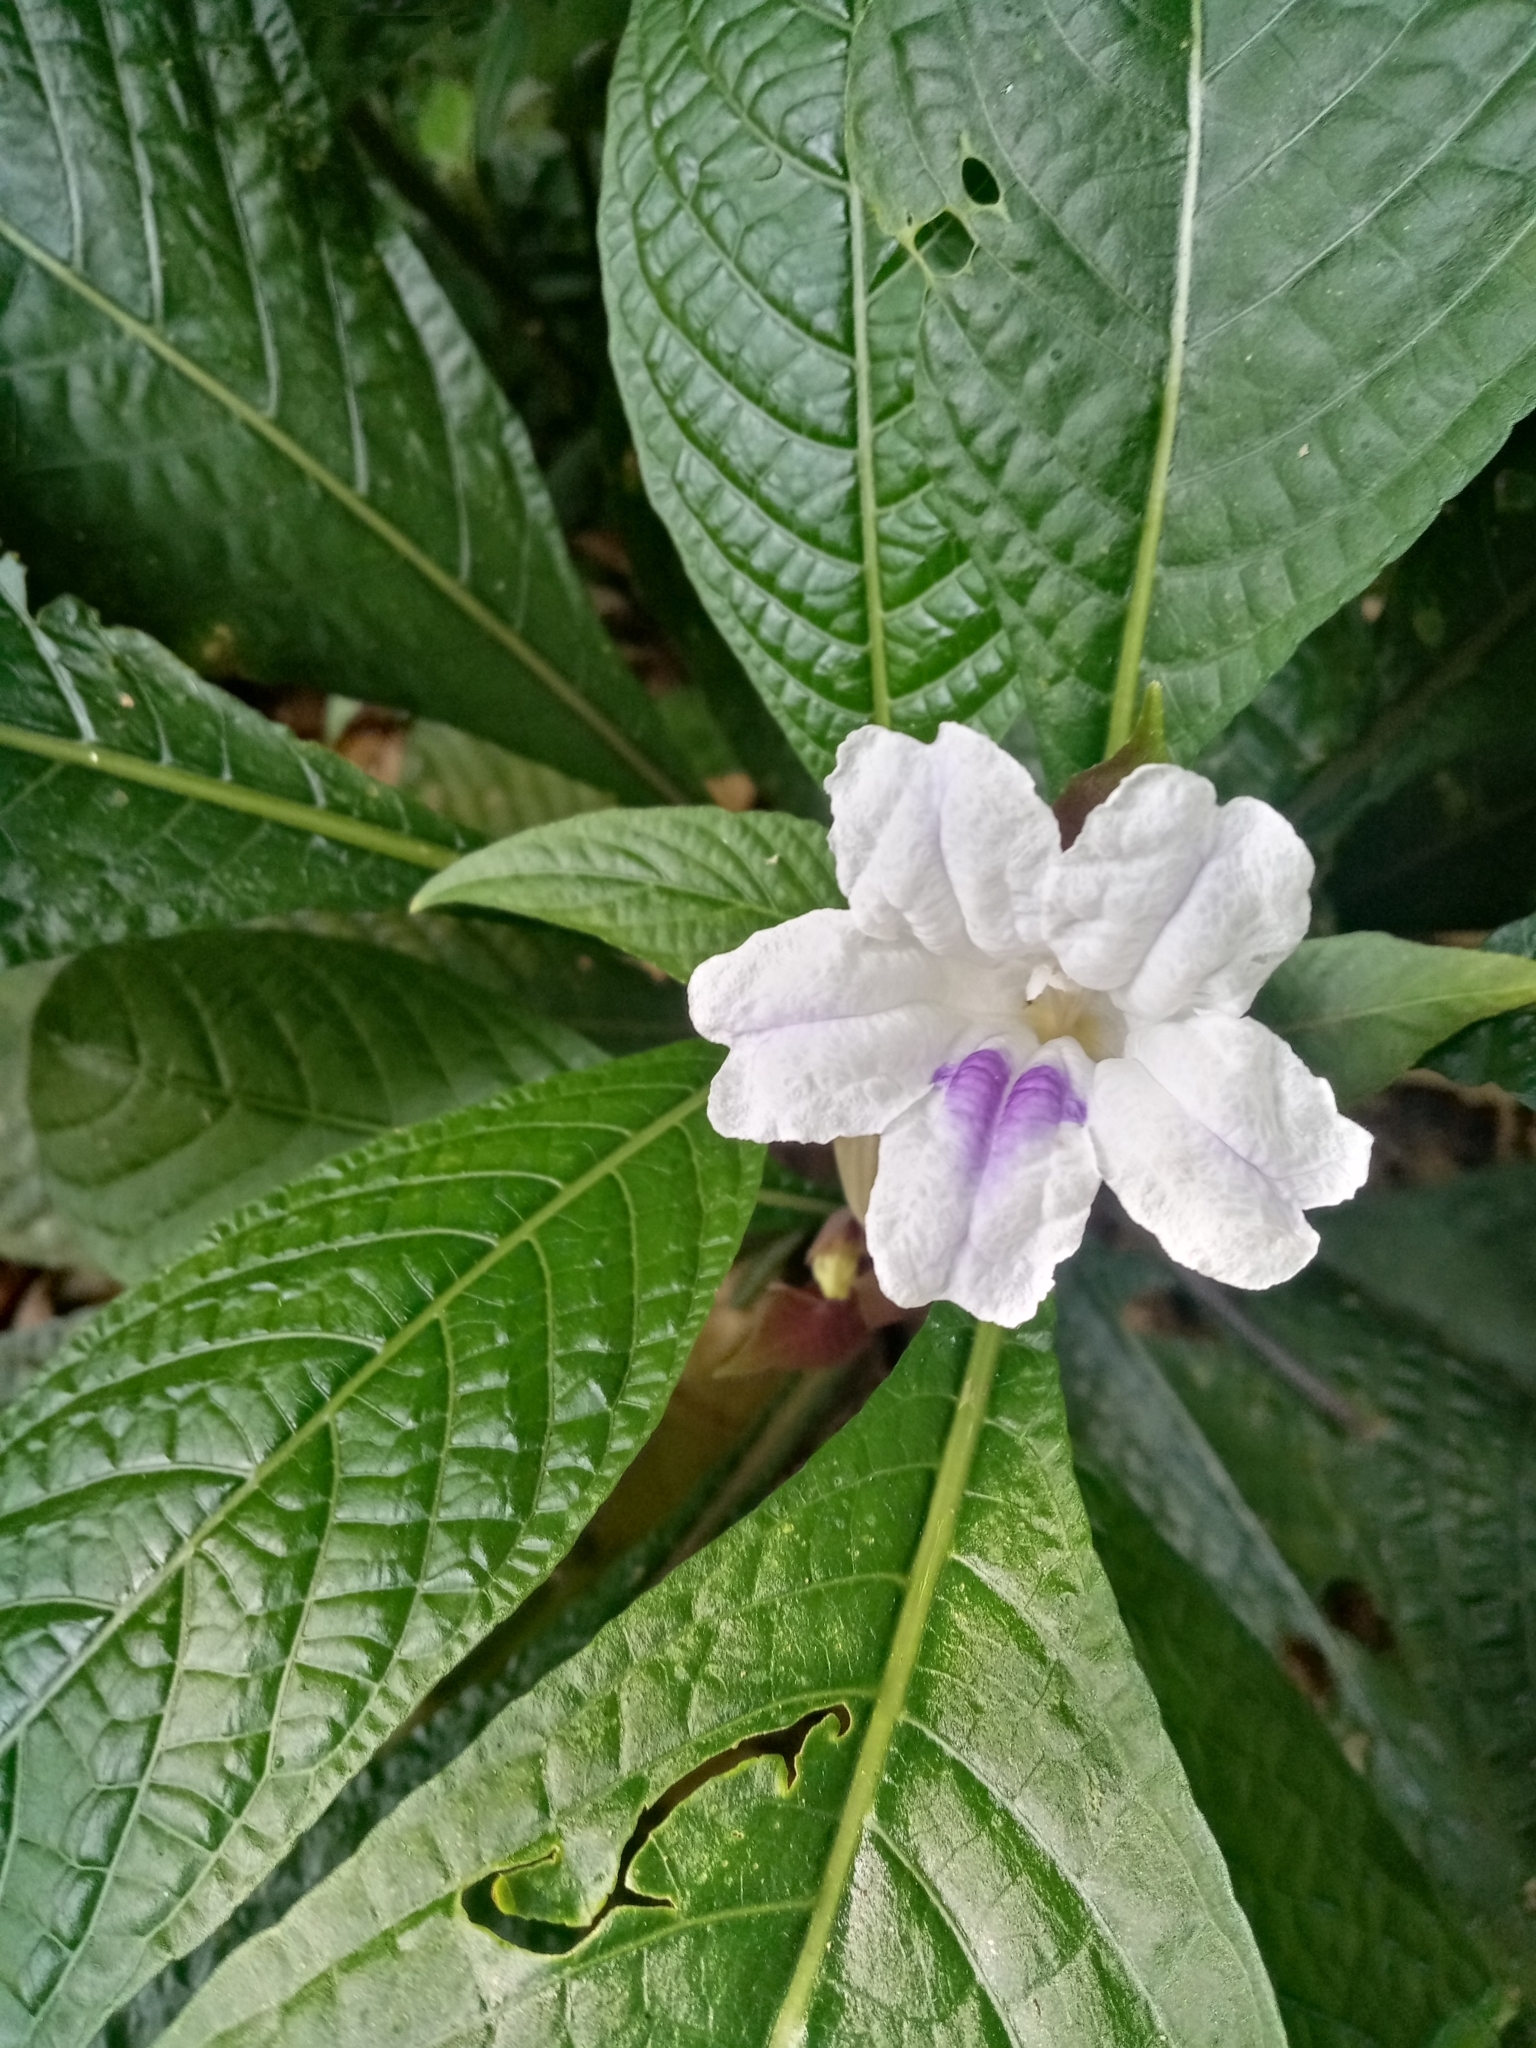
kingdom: Plantae
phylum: Tracheophyta
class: Magnoliopsida
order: Lamiales
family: Acanthaceae
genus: Ruellia
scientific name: Ruellia tubiflora
